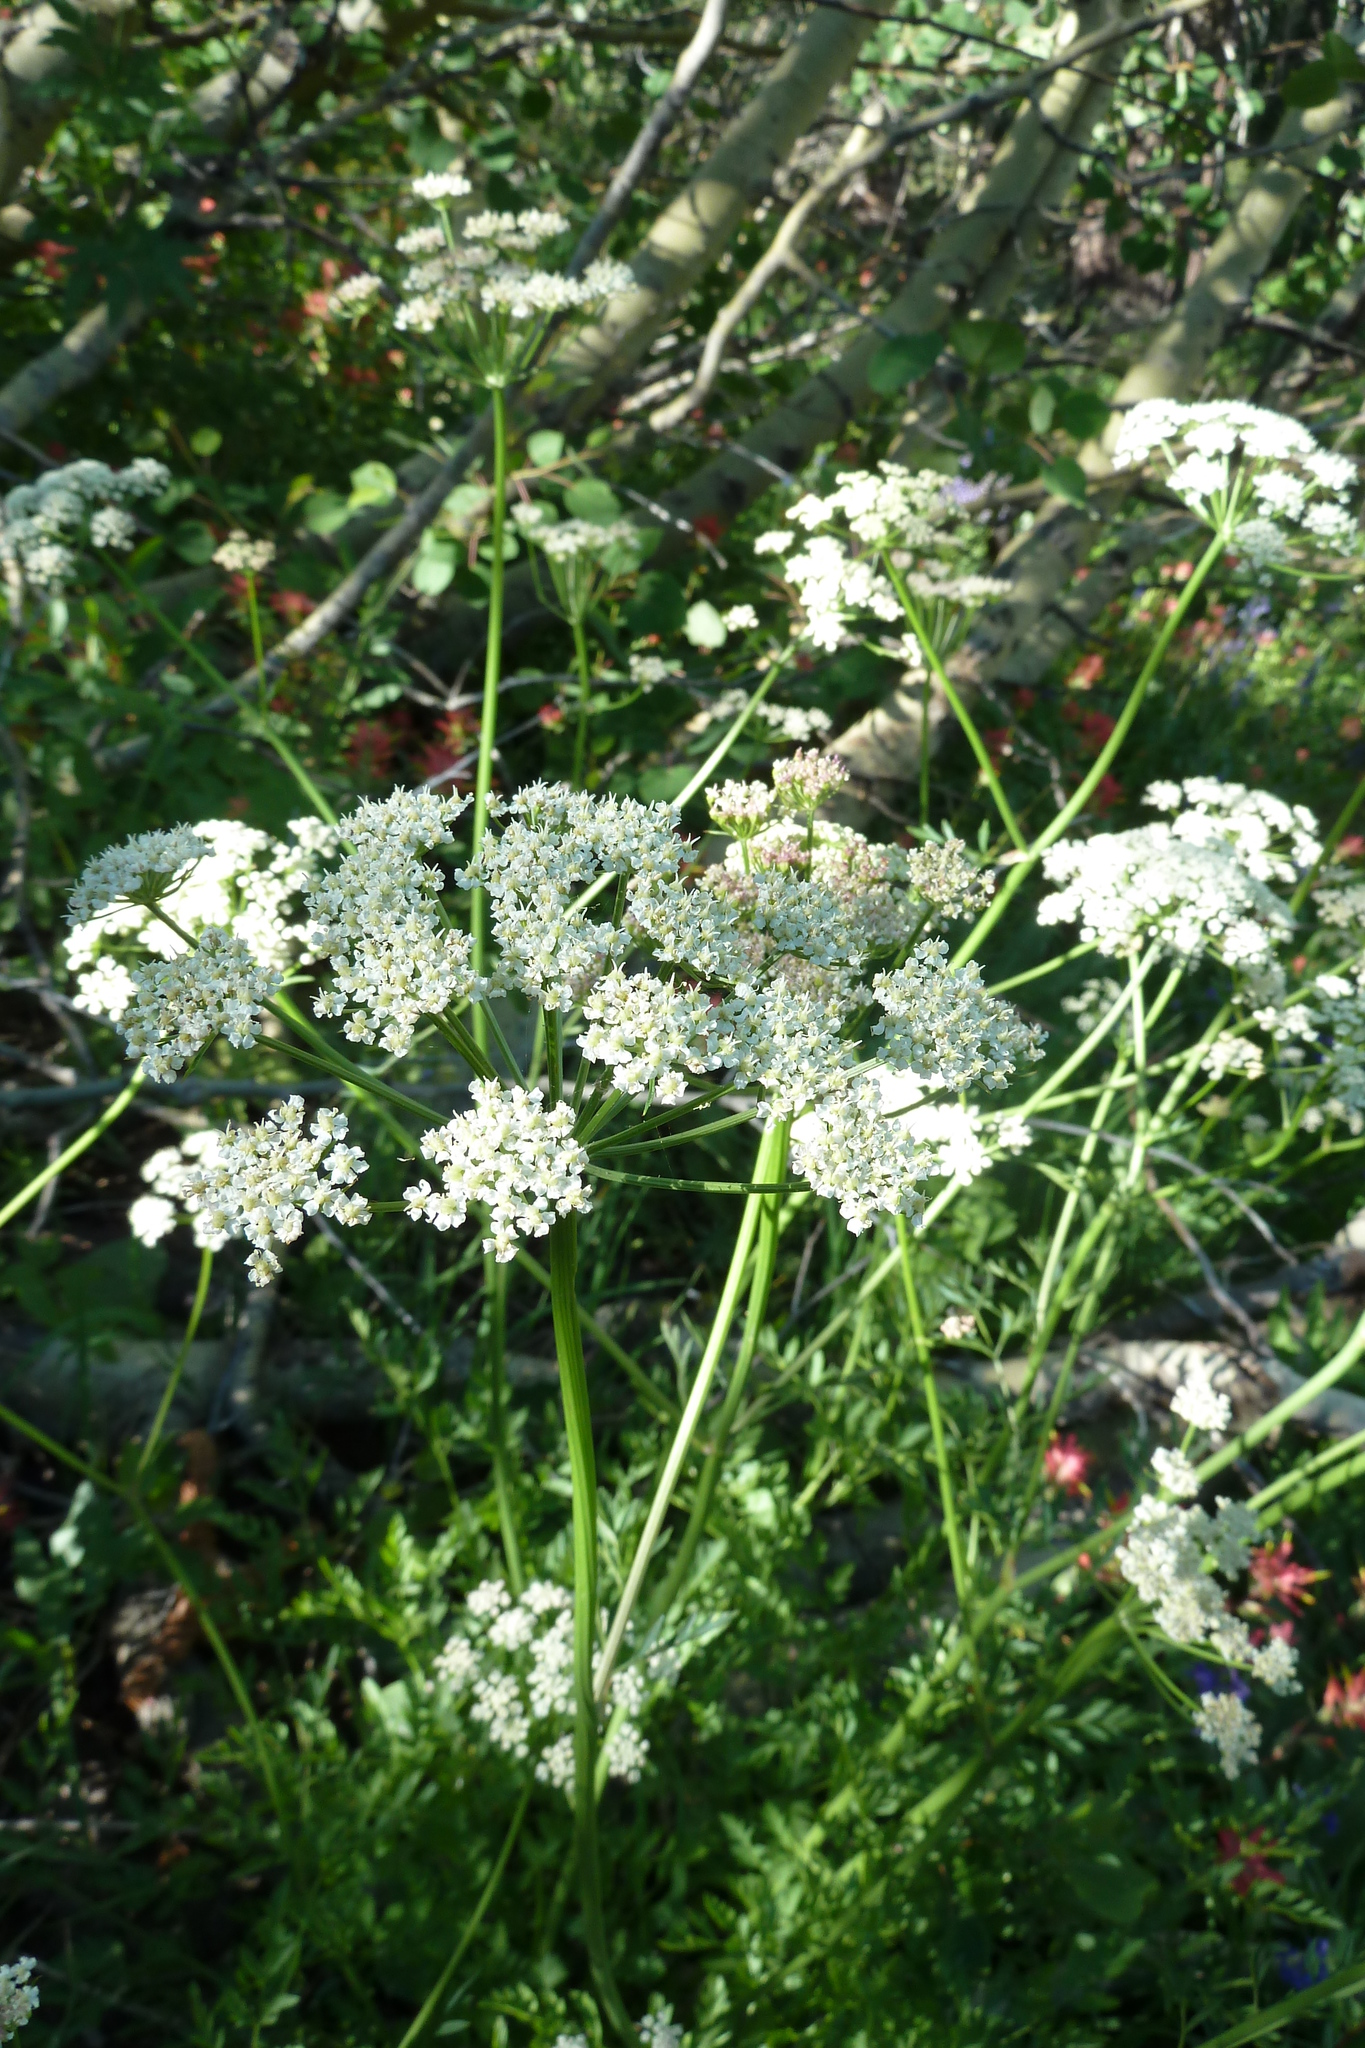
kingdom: Plantae
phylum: Tracheophyta
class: Magnoliopsida
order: Apiales
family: Apiaceae
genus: Ligusticum
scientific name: Ligusticum grayi
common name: Gray's licorice-root
